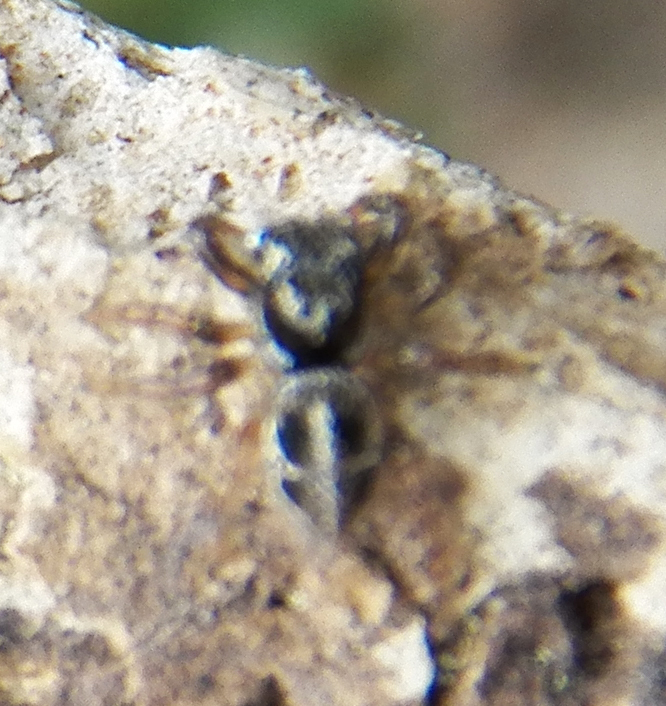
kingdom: Animalia
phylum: Arthropoda
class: Arachnida
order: Araneae
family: Salticidae
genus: Anasaitis
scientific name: Anasaitis canosa
